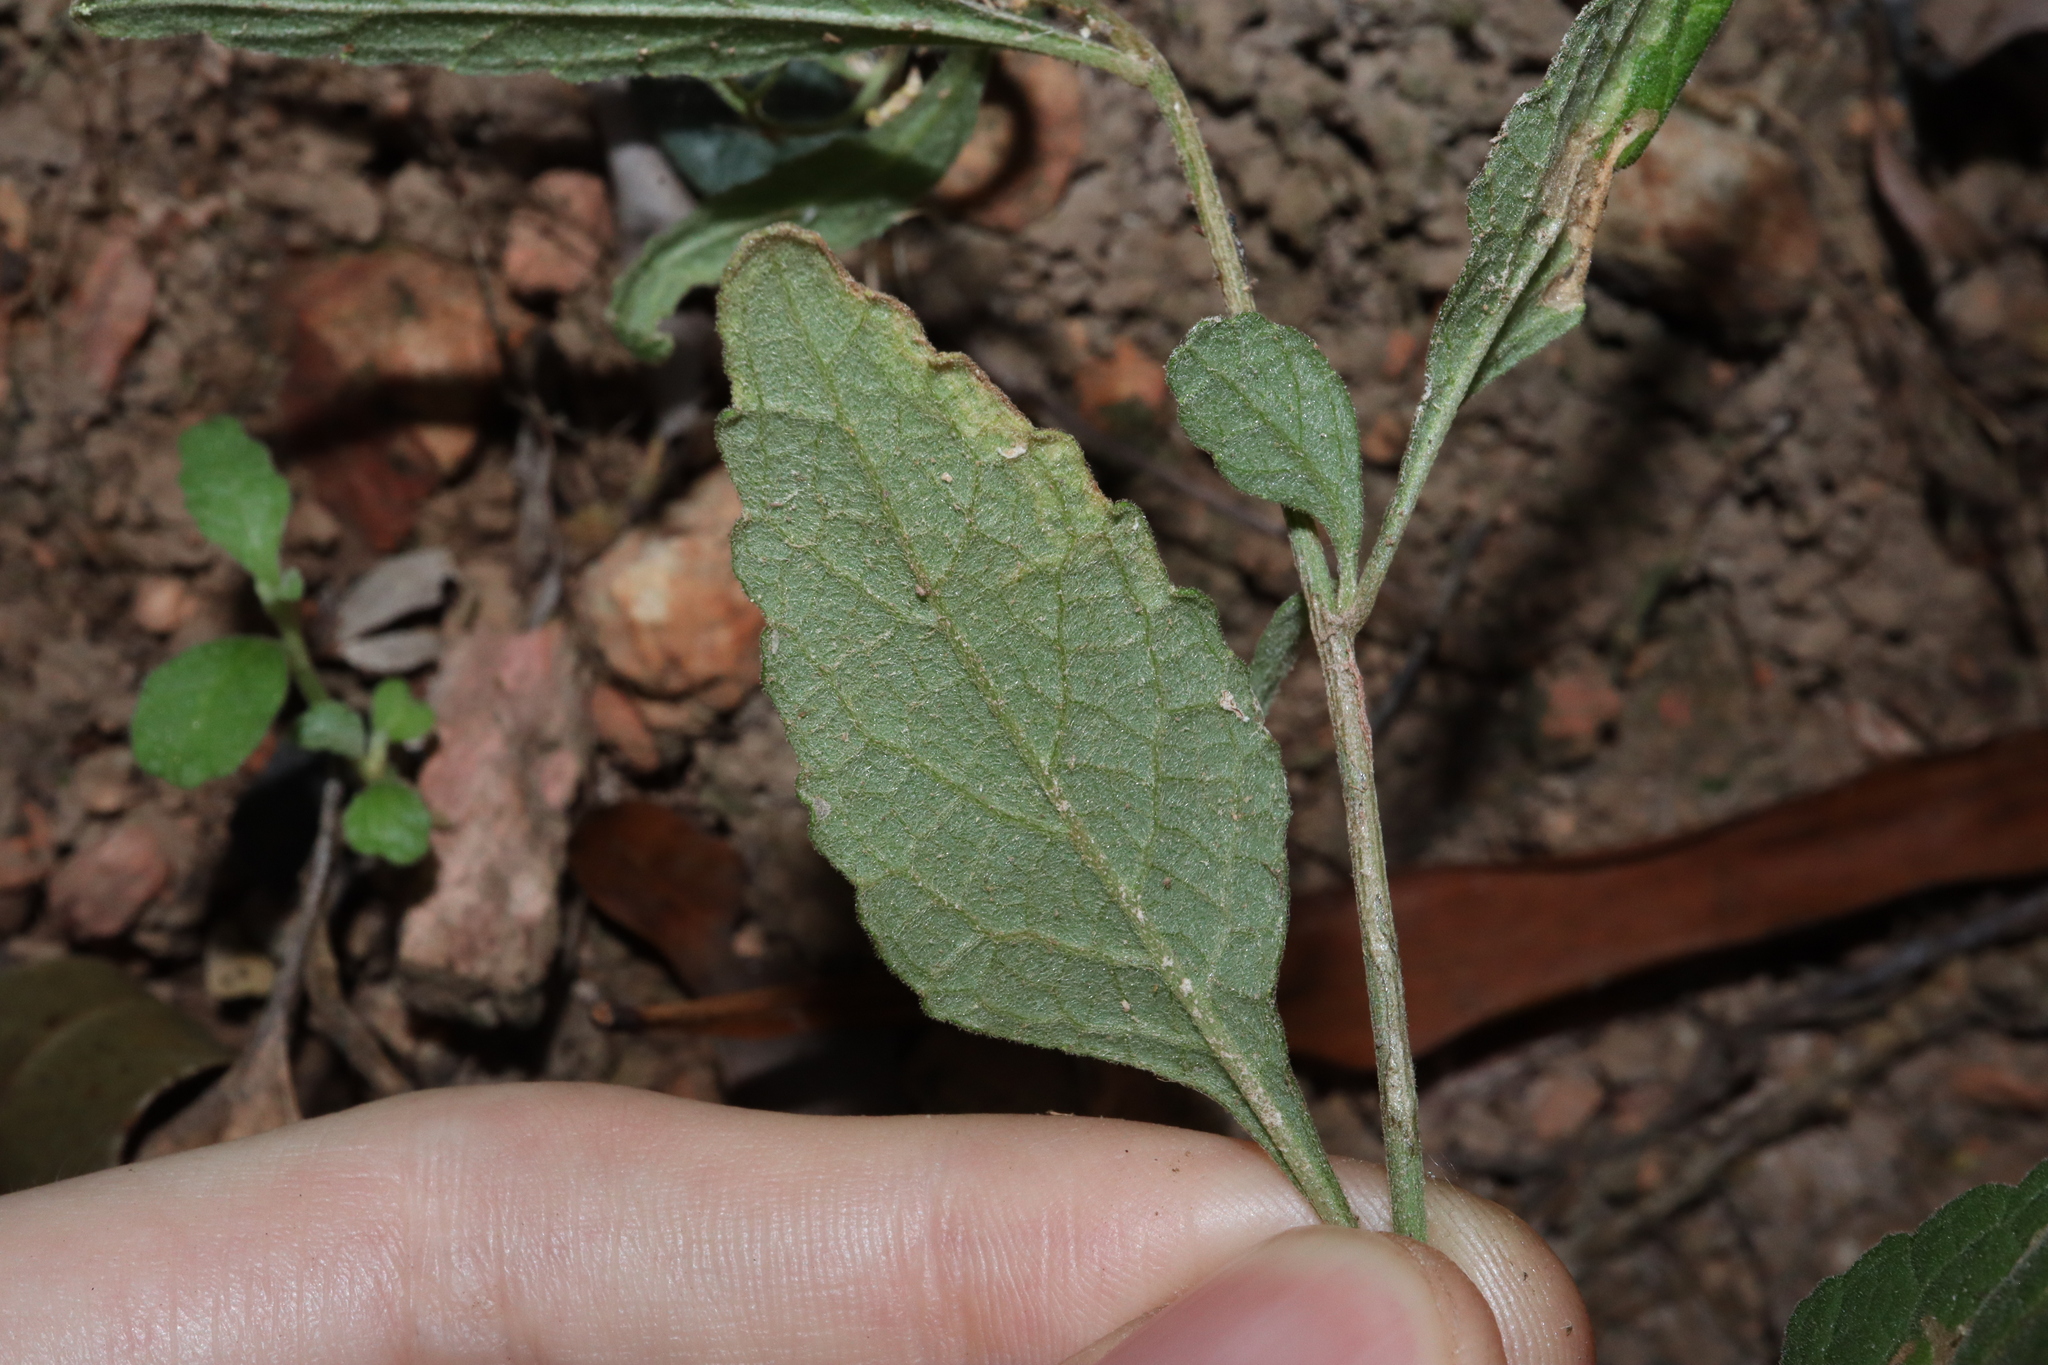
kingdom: Plantae
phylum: Tracheophyta
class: Magnoliopsida
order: Asterales
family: Asteraceae
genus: Cyanthillium
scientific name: Cyanthillium cinereum
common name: Little ironweed
